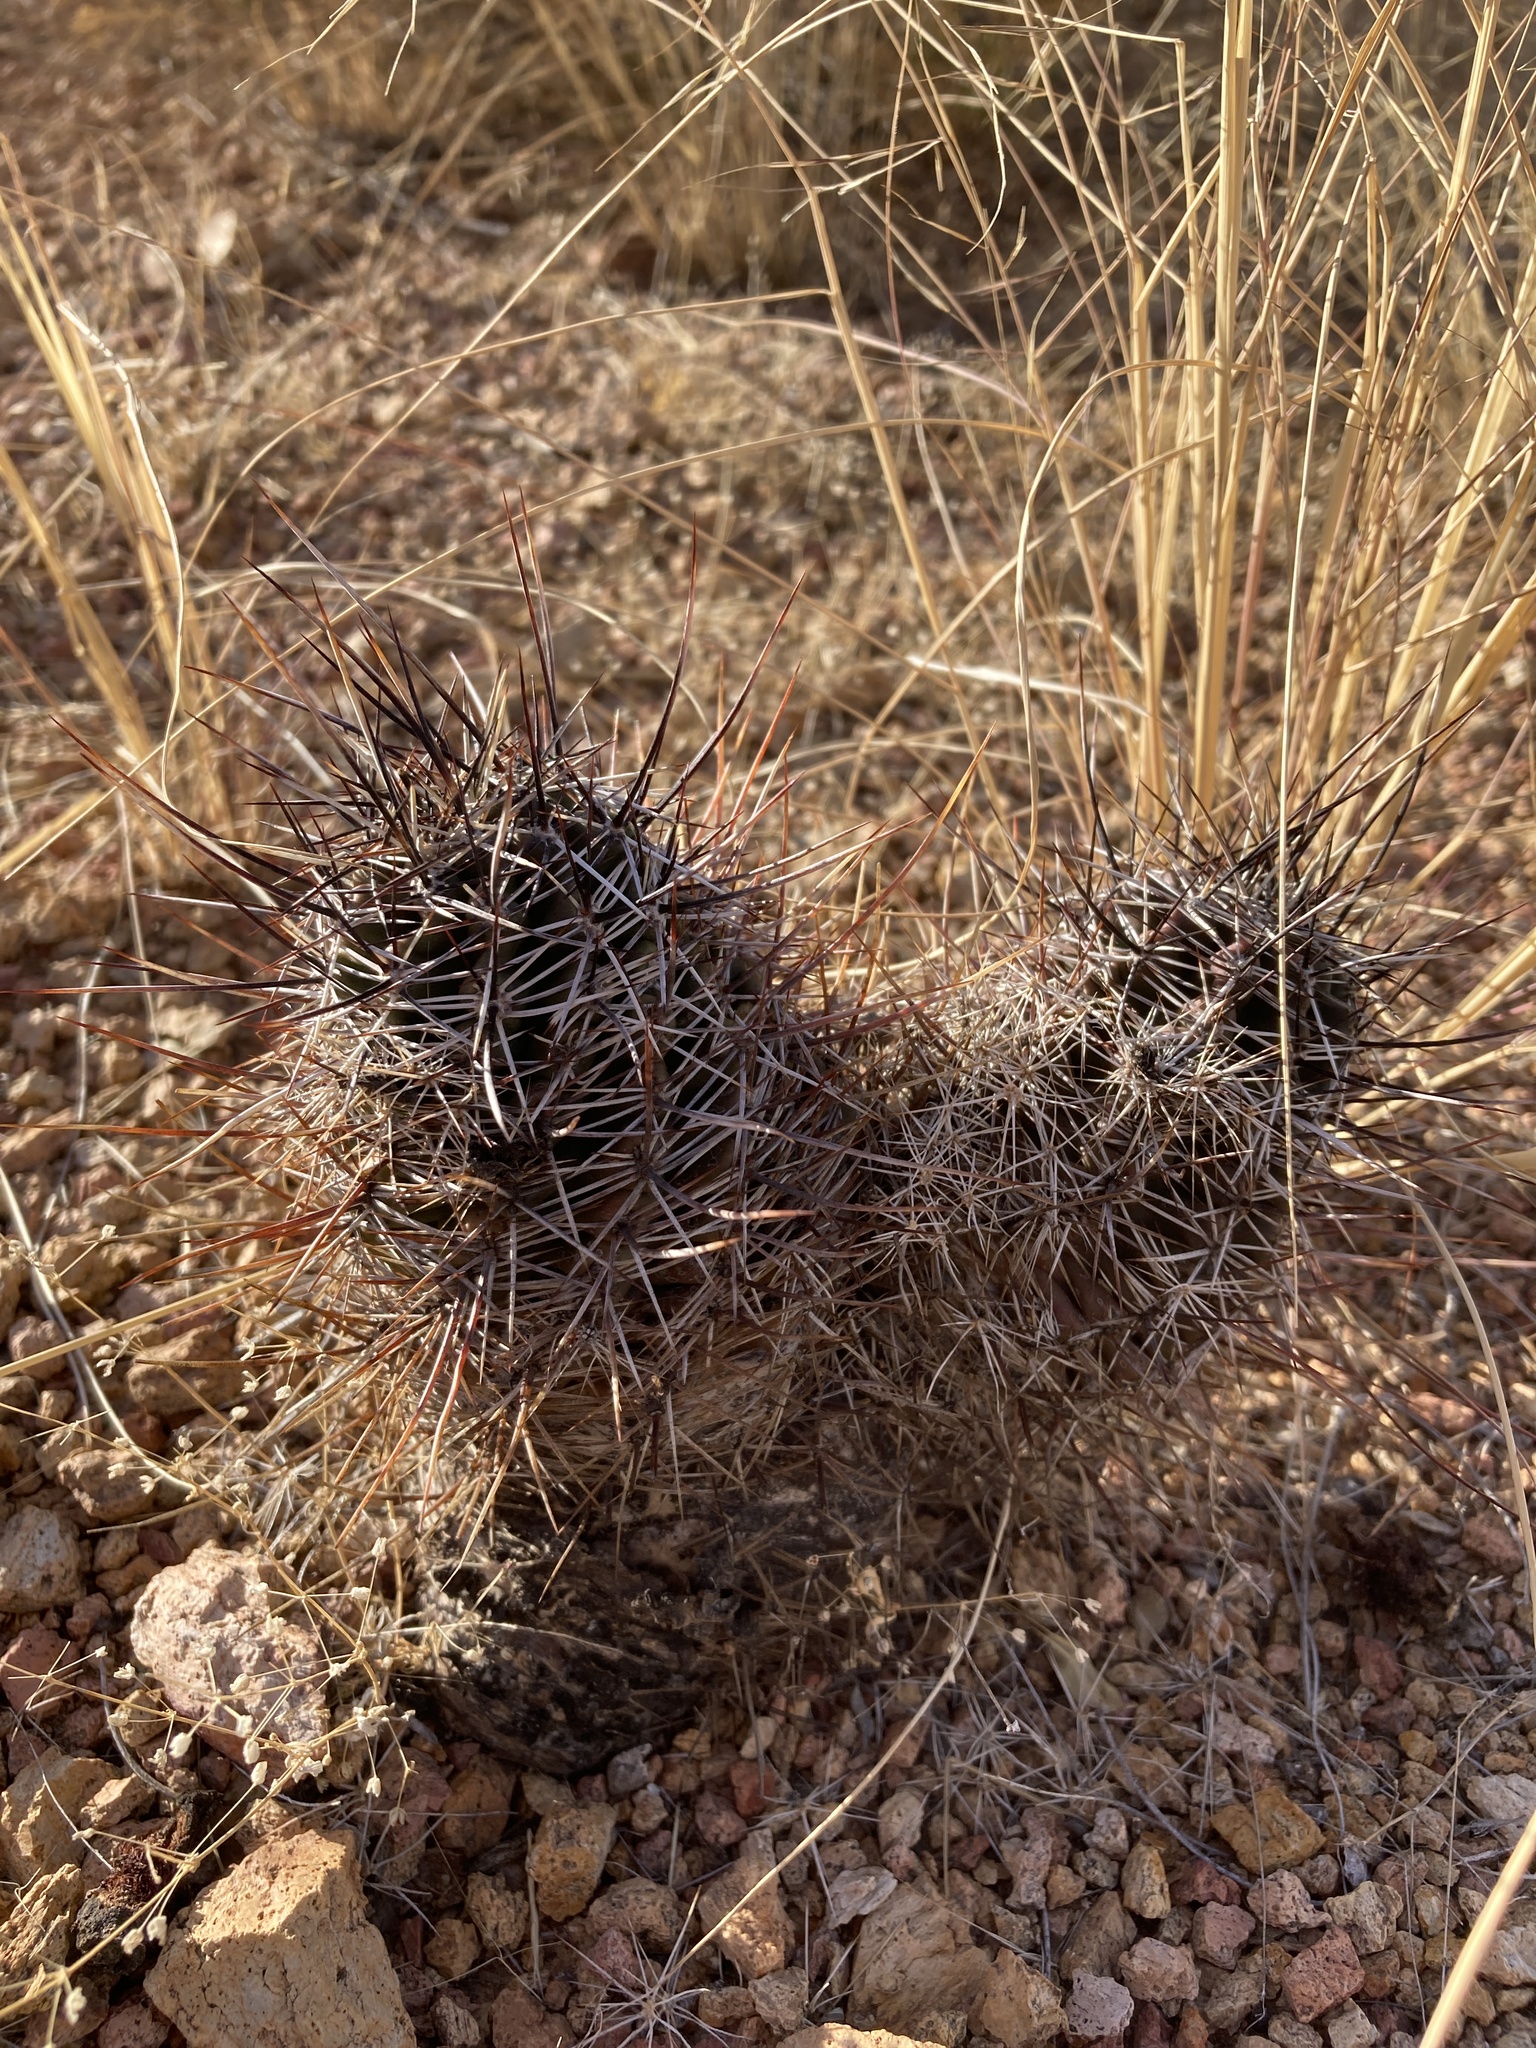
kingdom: Plantae
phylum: Tracheophyta
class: Magnoliopsida
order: Caryophyllales
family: Cactaceae
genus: Echinocereus
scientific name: Echinocereus fendleri
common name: Fendler's hedgehog cactus
